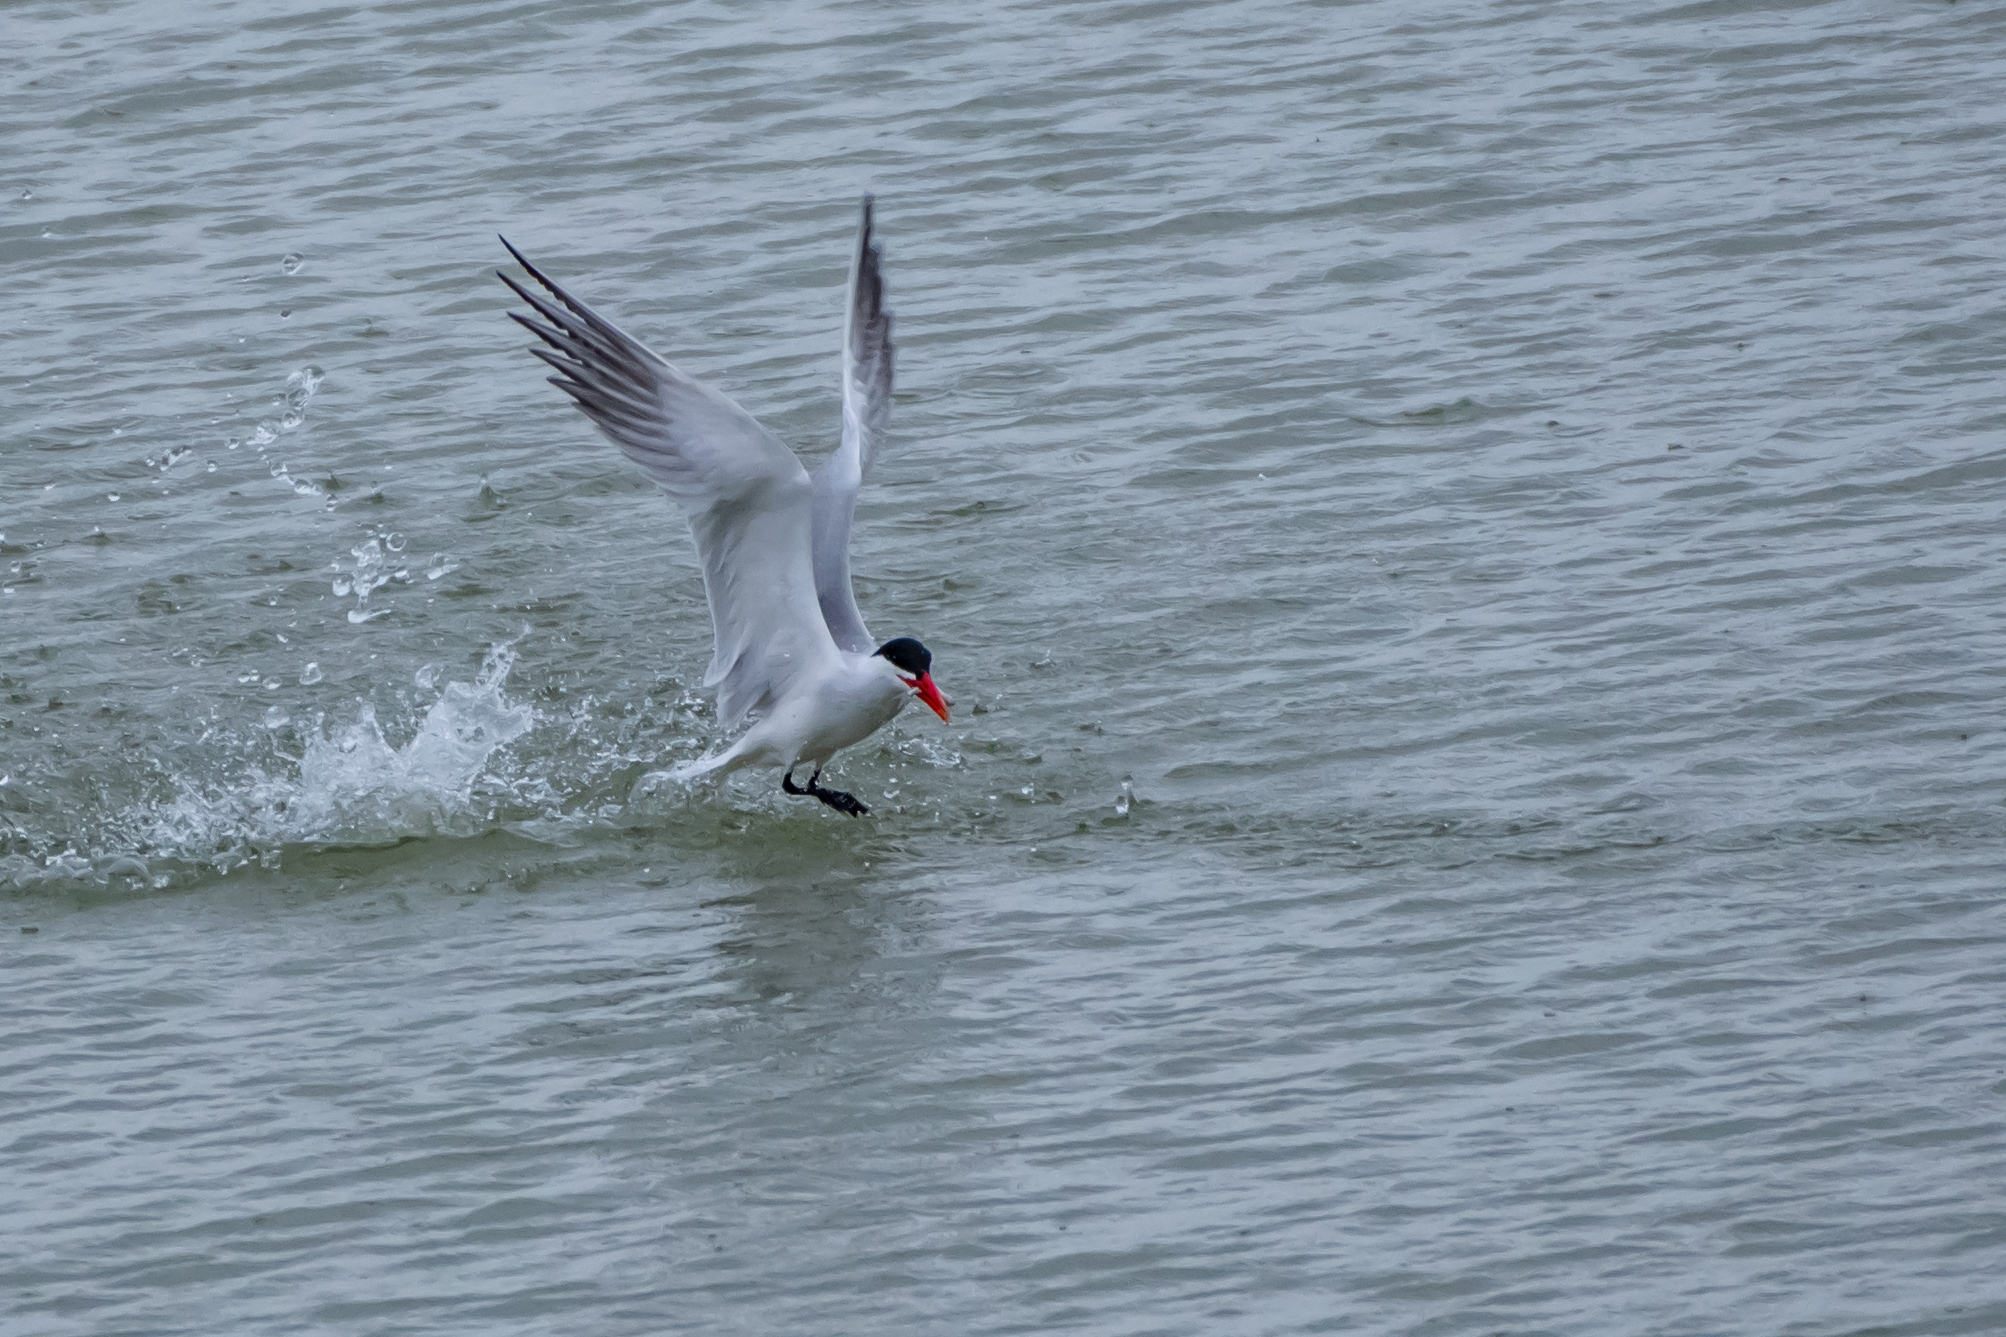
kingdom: Animalia
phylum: Chordata
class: Aves
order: Charadriiformes
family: Laridae
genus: Hydroprogne
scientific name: Hydroprogne caspia
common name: Caspian tern
